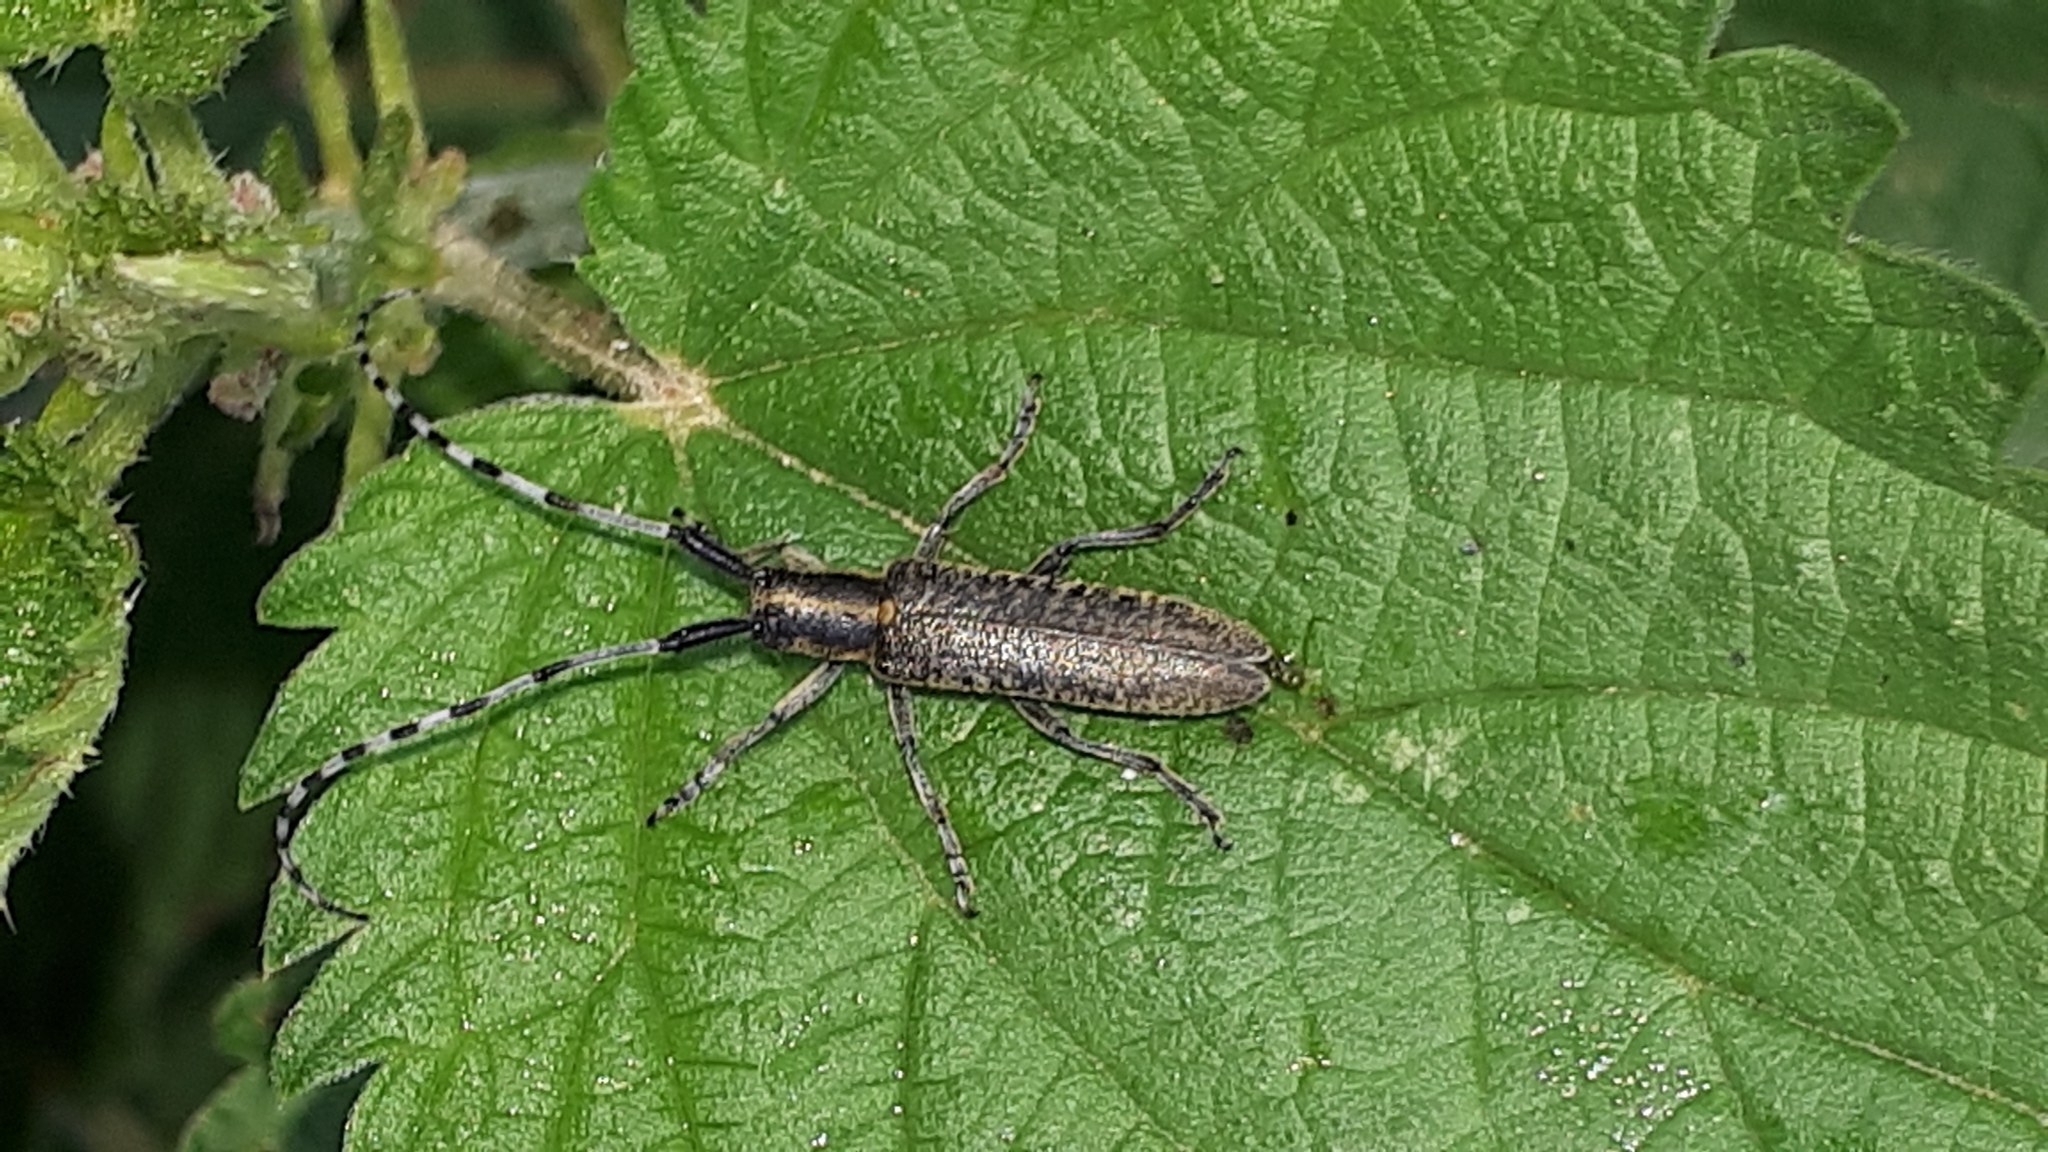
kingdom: Animalia
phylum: Arthropoda
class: Insecta
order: Coleoptera
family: Cerambycidae
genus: Agapanthia
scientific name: Agapanthia villosoviridescens
